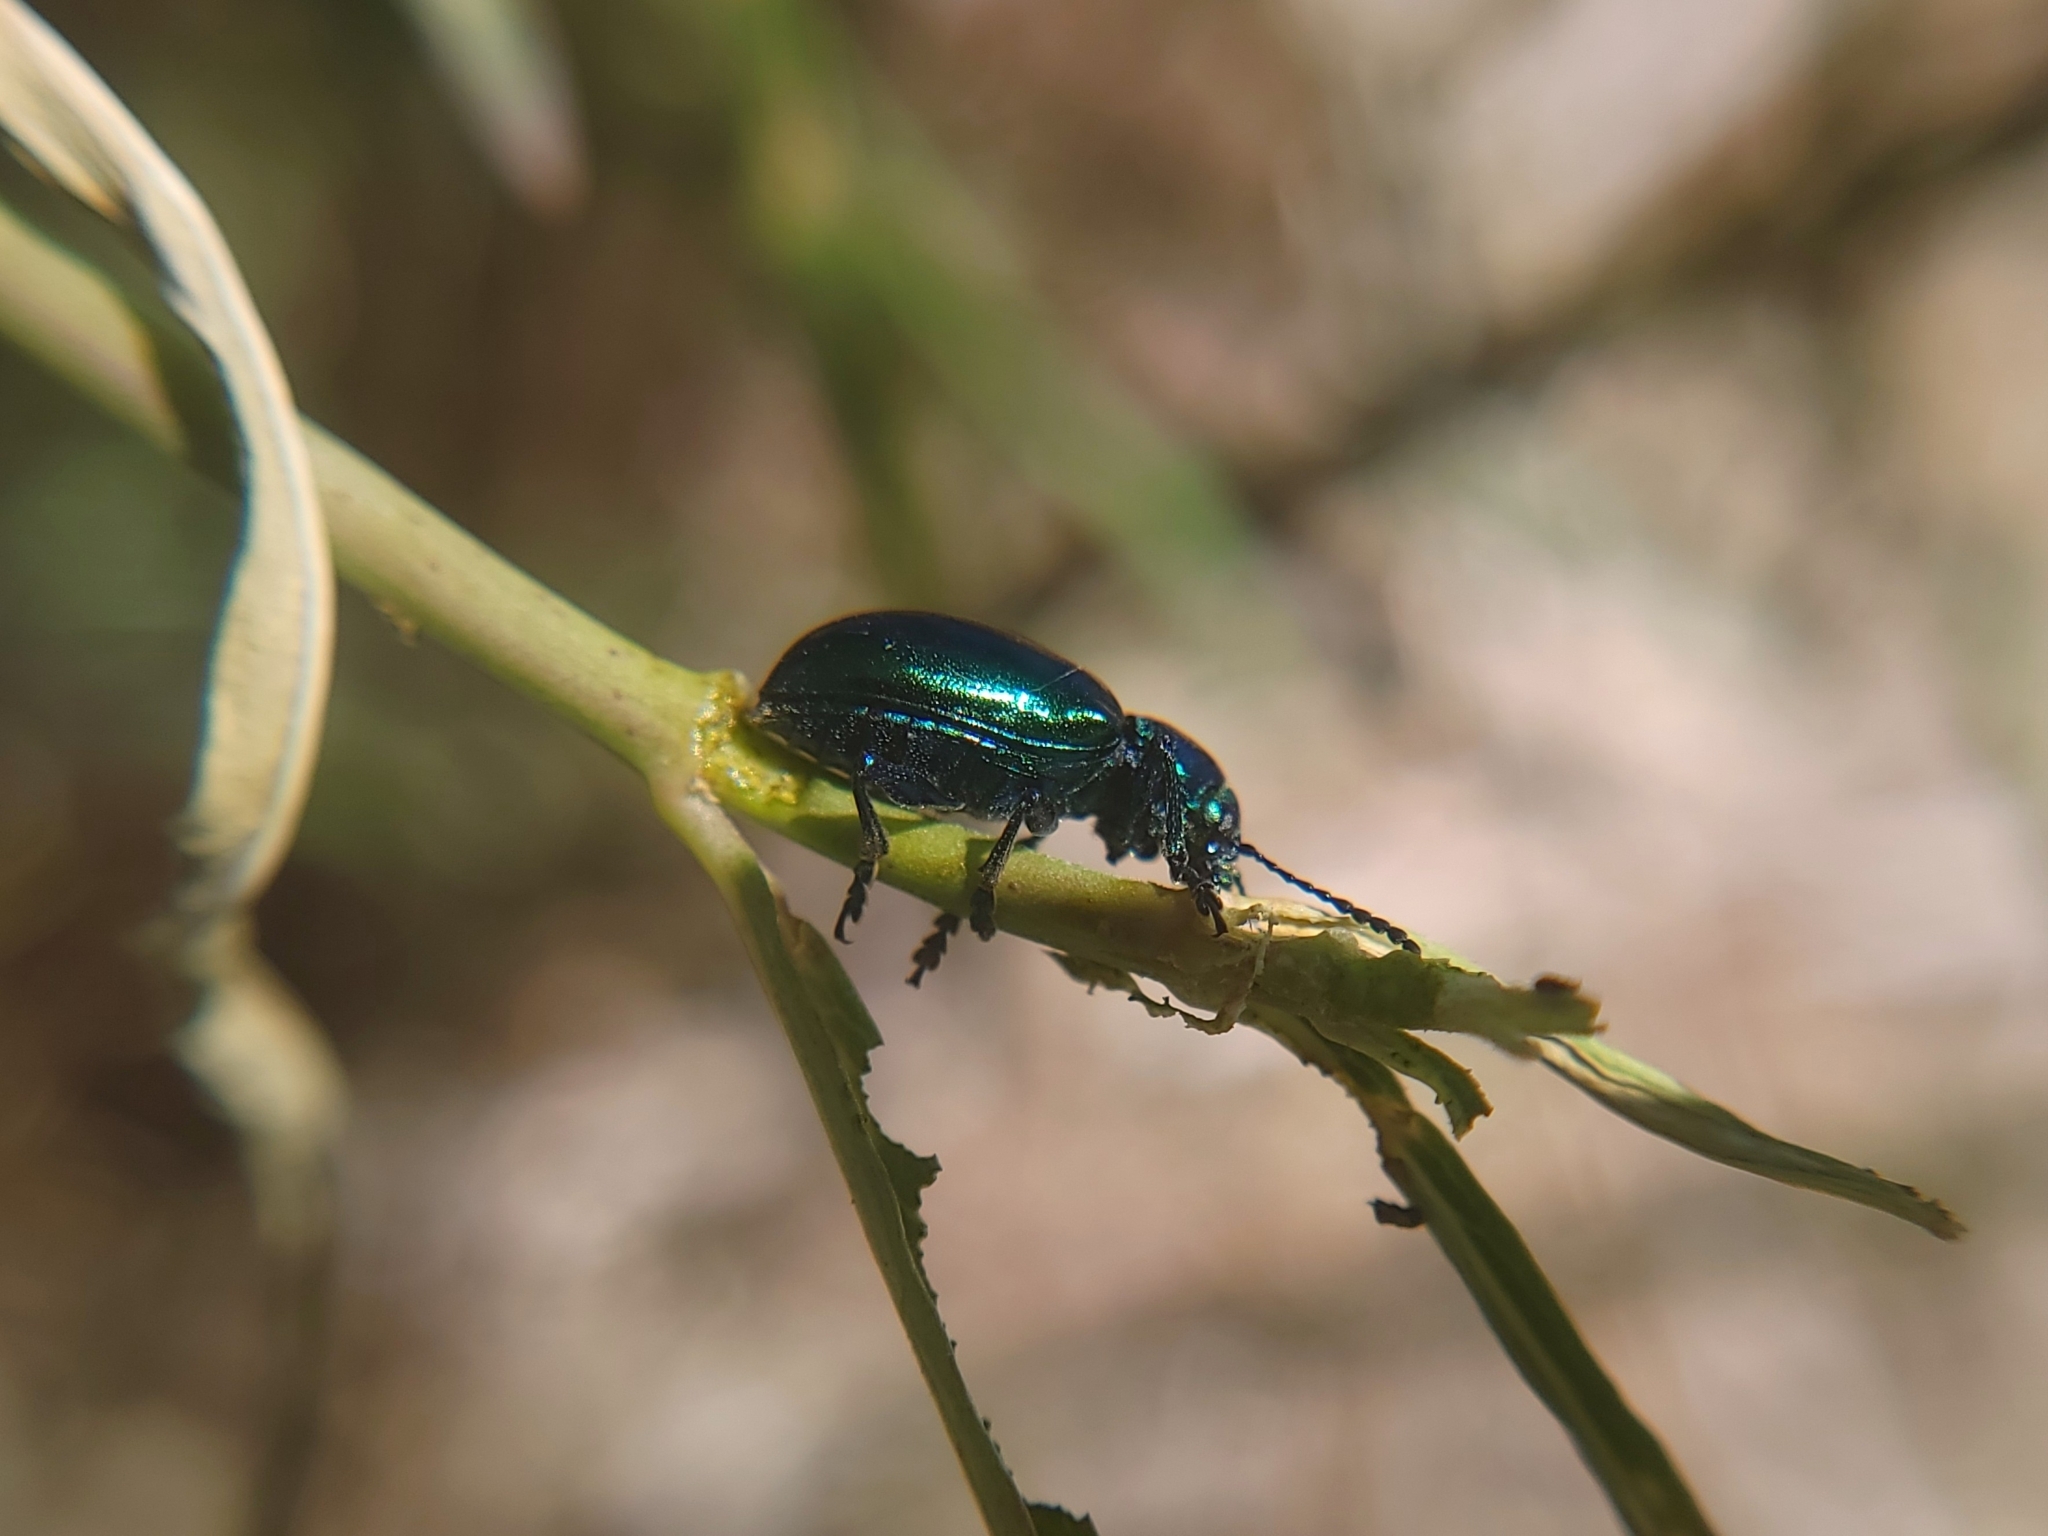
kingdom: Animalia
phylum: Arthropoda
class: Insecta
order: Coleoptera
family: Chrysomelidae
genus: Chrysochus
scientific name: Chrysochus cobaltinus
